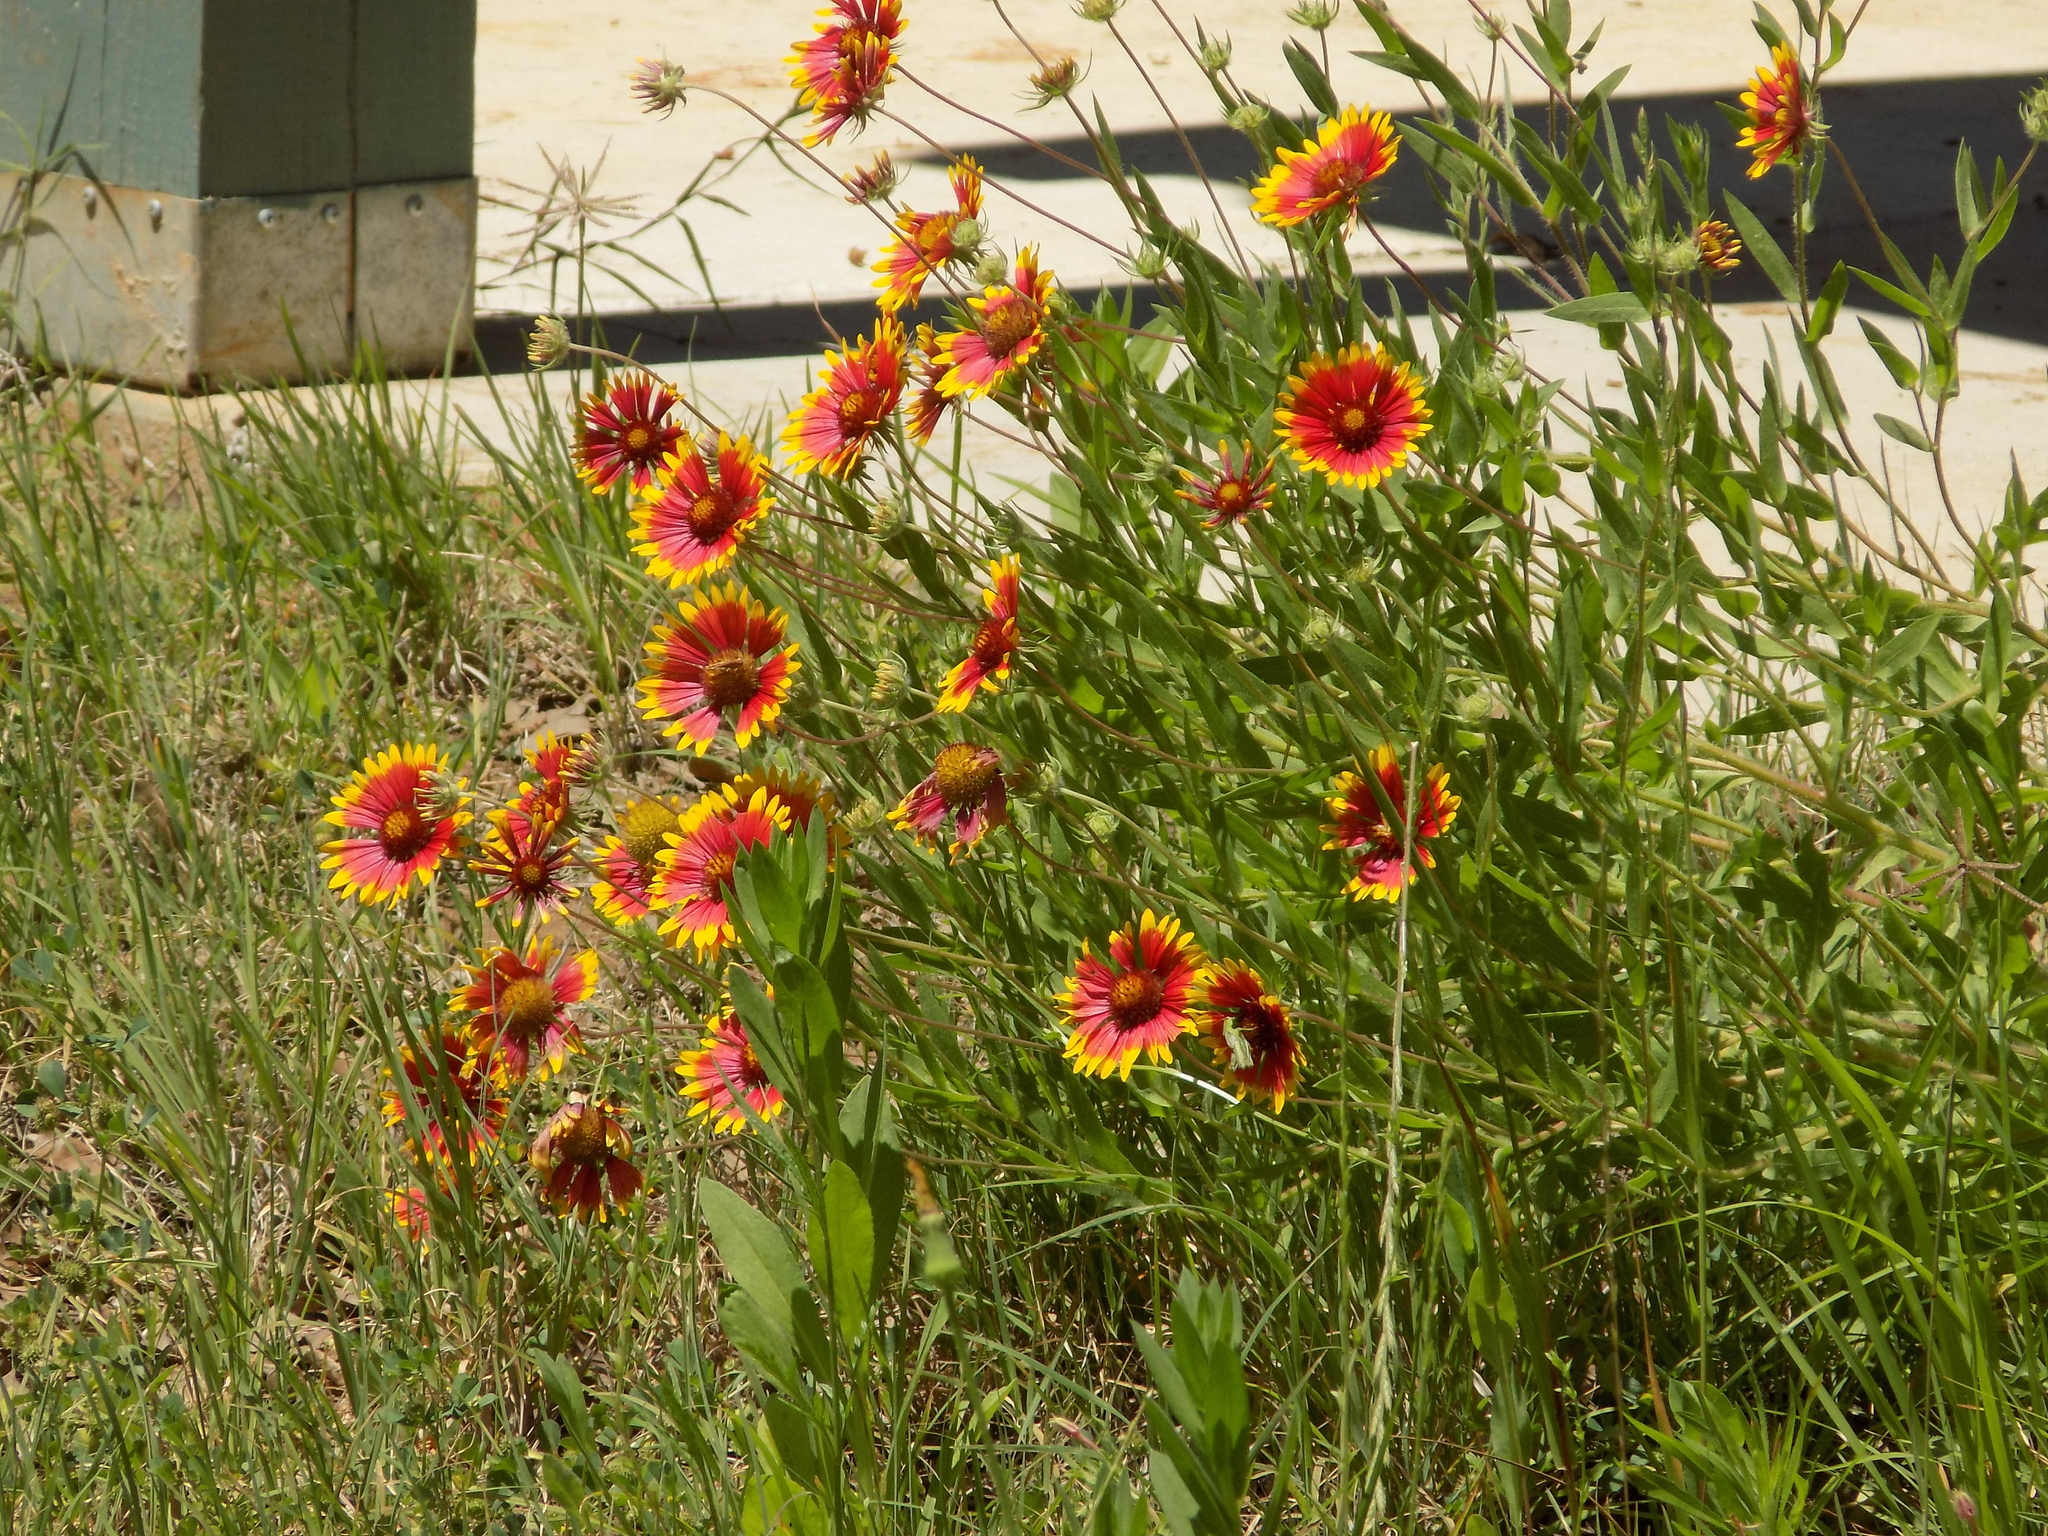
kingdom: Plantae
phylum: Tracheophyta
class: Magnoliopsida
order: Asterales
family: Asteraceae
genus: Gaillardia
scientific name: Gaillardia pulchella
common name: Firewheel
